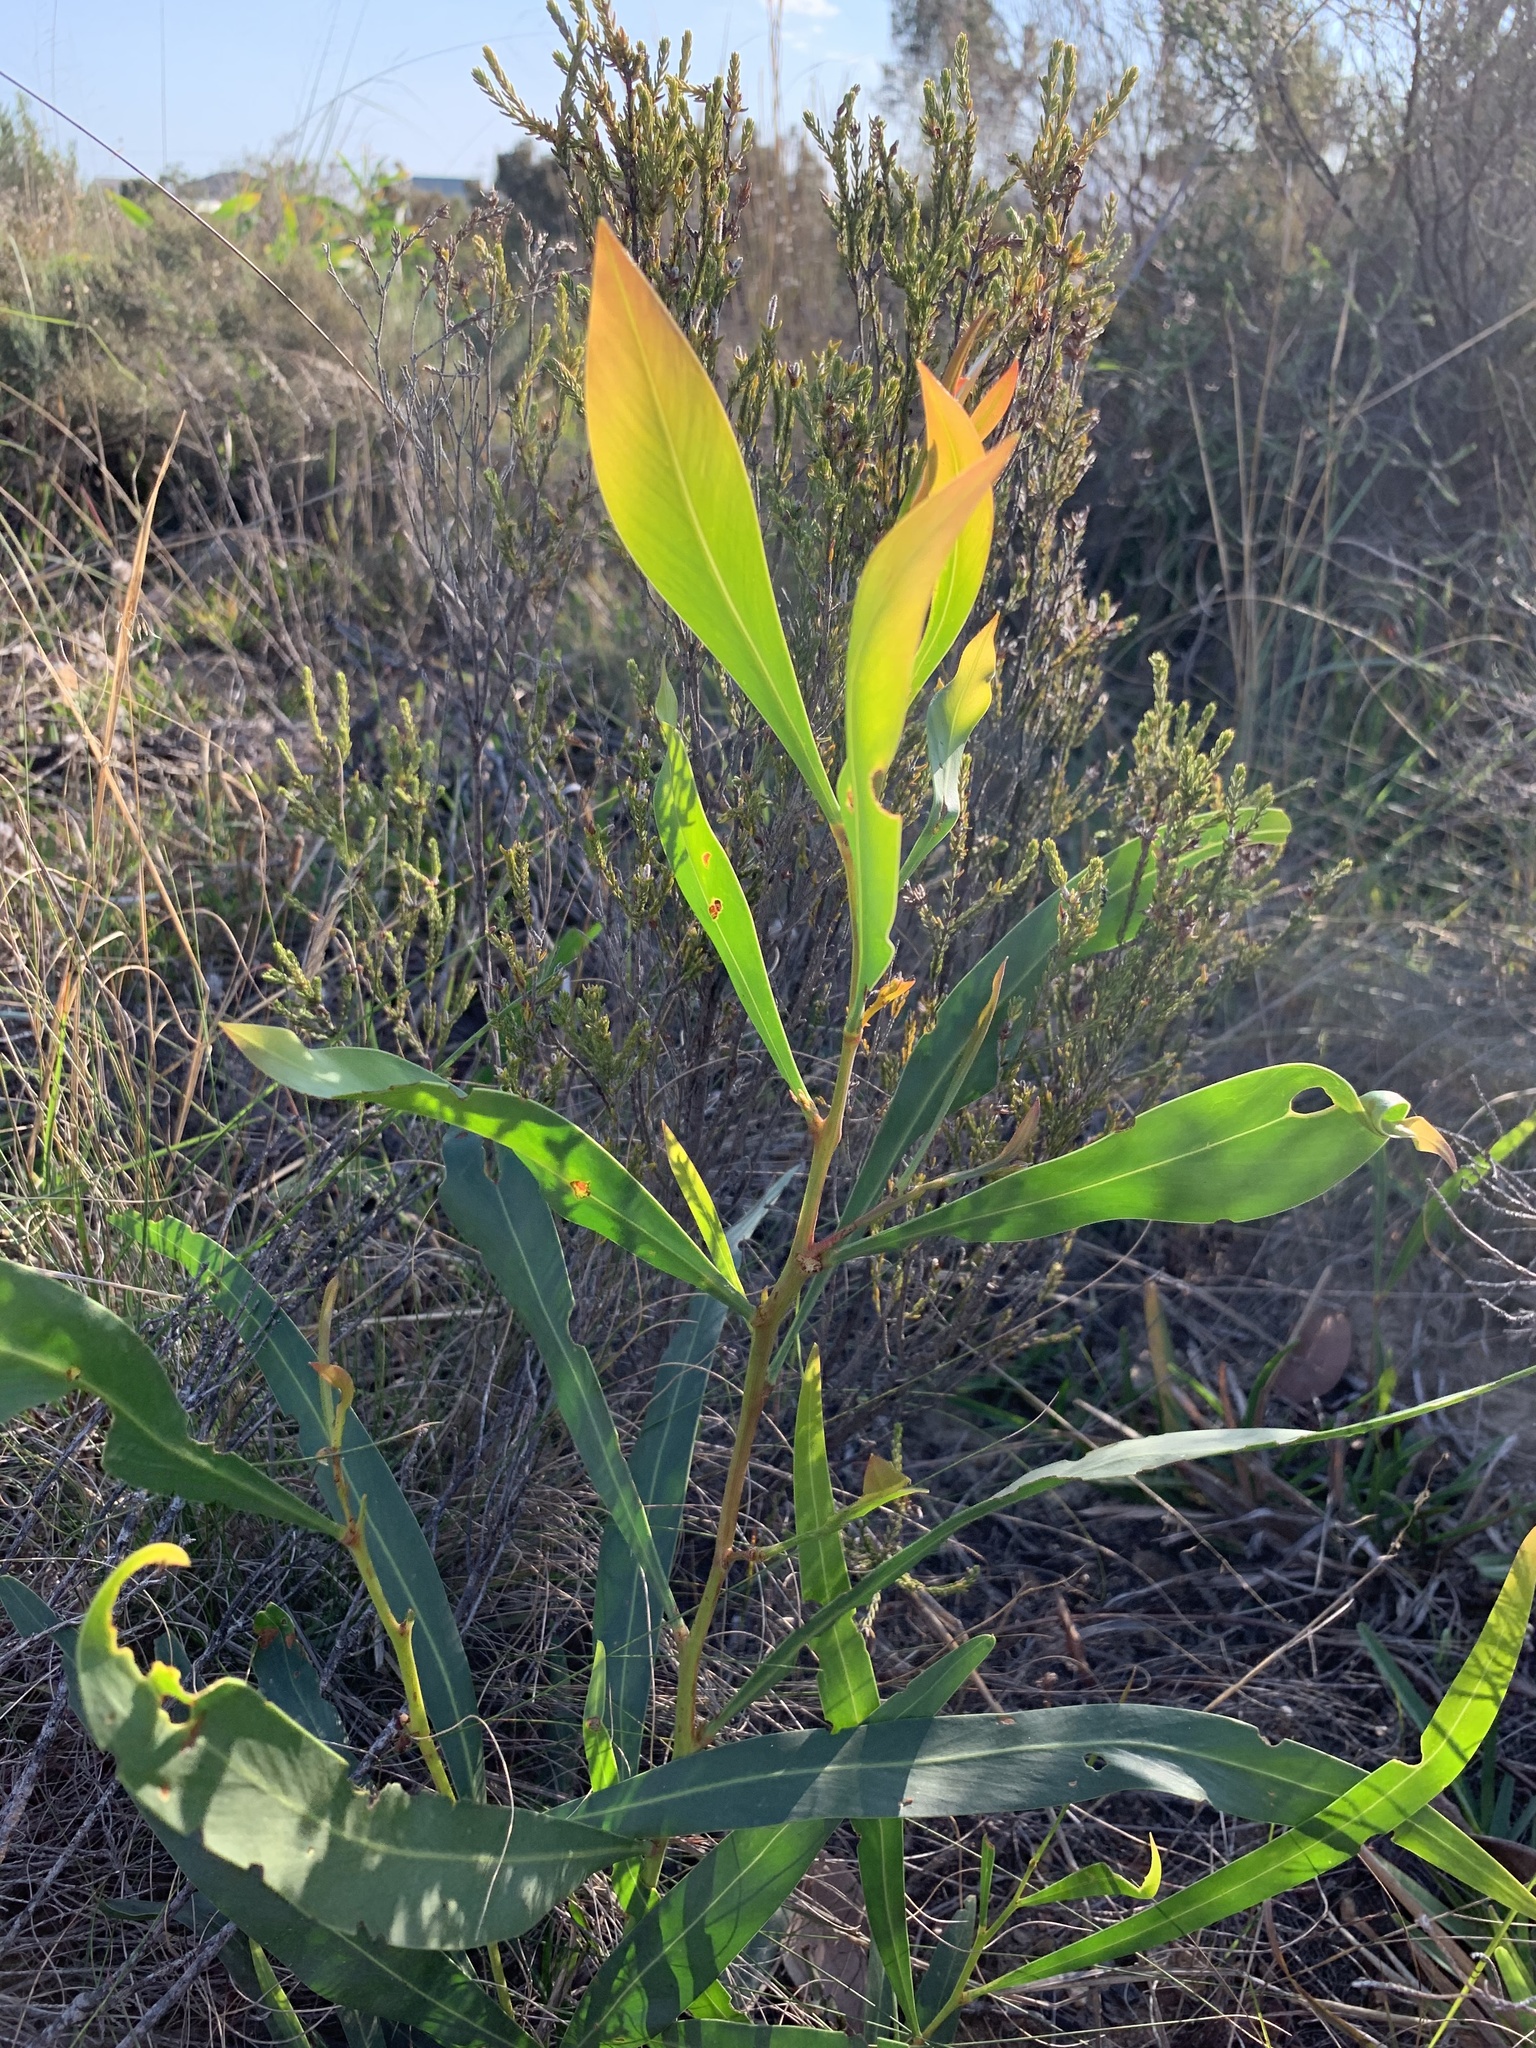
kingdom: Plantae
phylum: Tracheophyta
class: Magnoliopsida
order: Fabales
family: Fabaceae
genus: Acacia
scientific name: Acacia saligna
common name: Orange wattle
